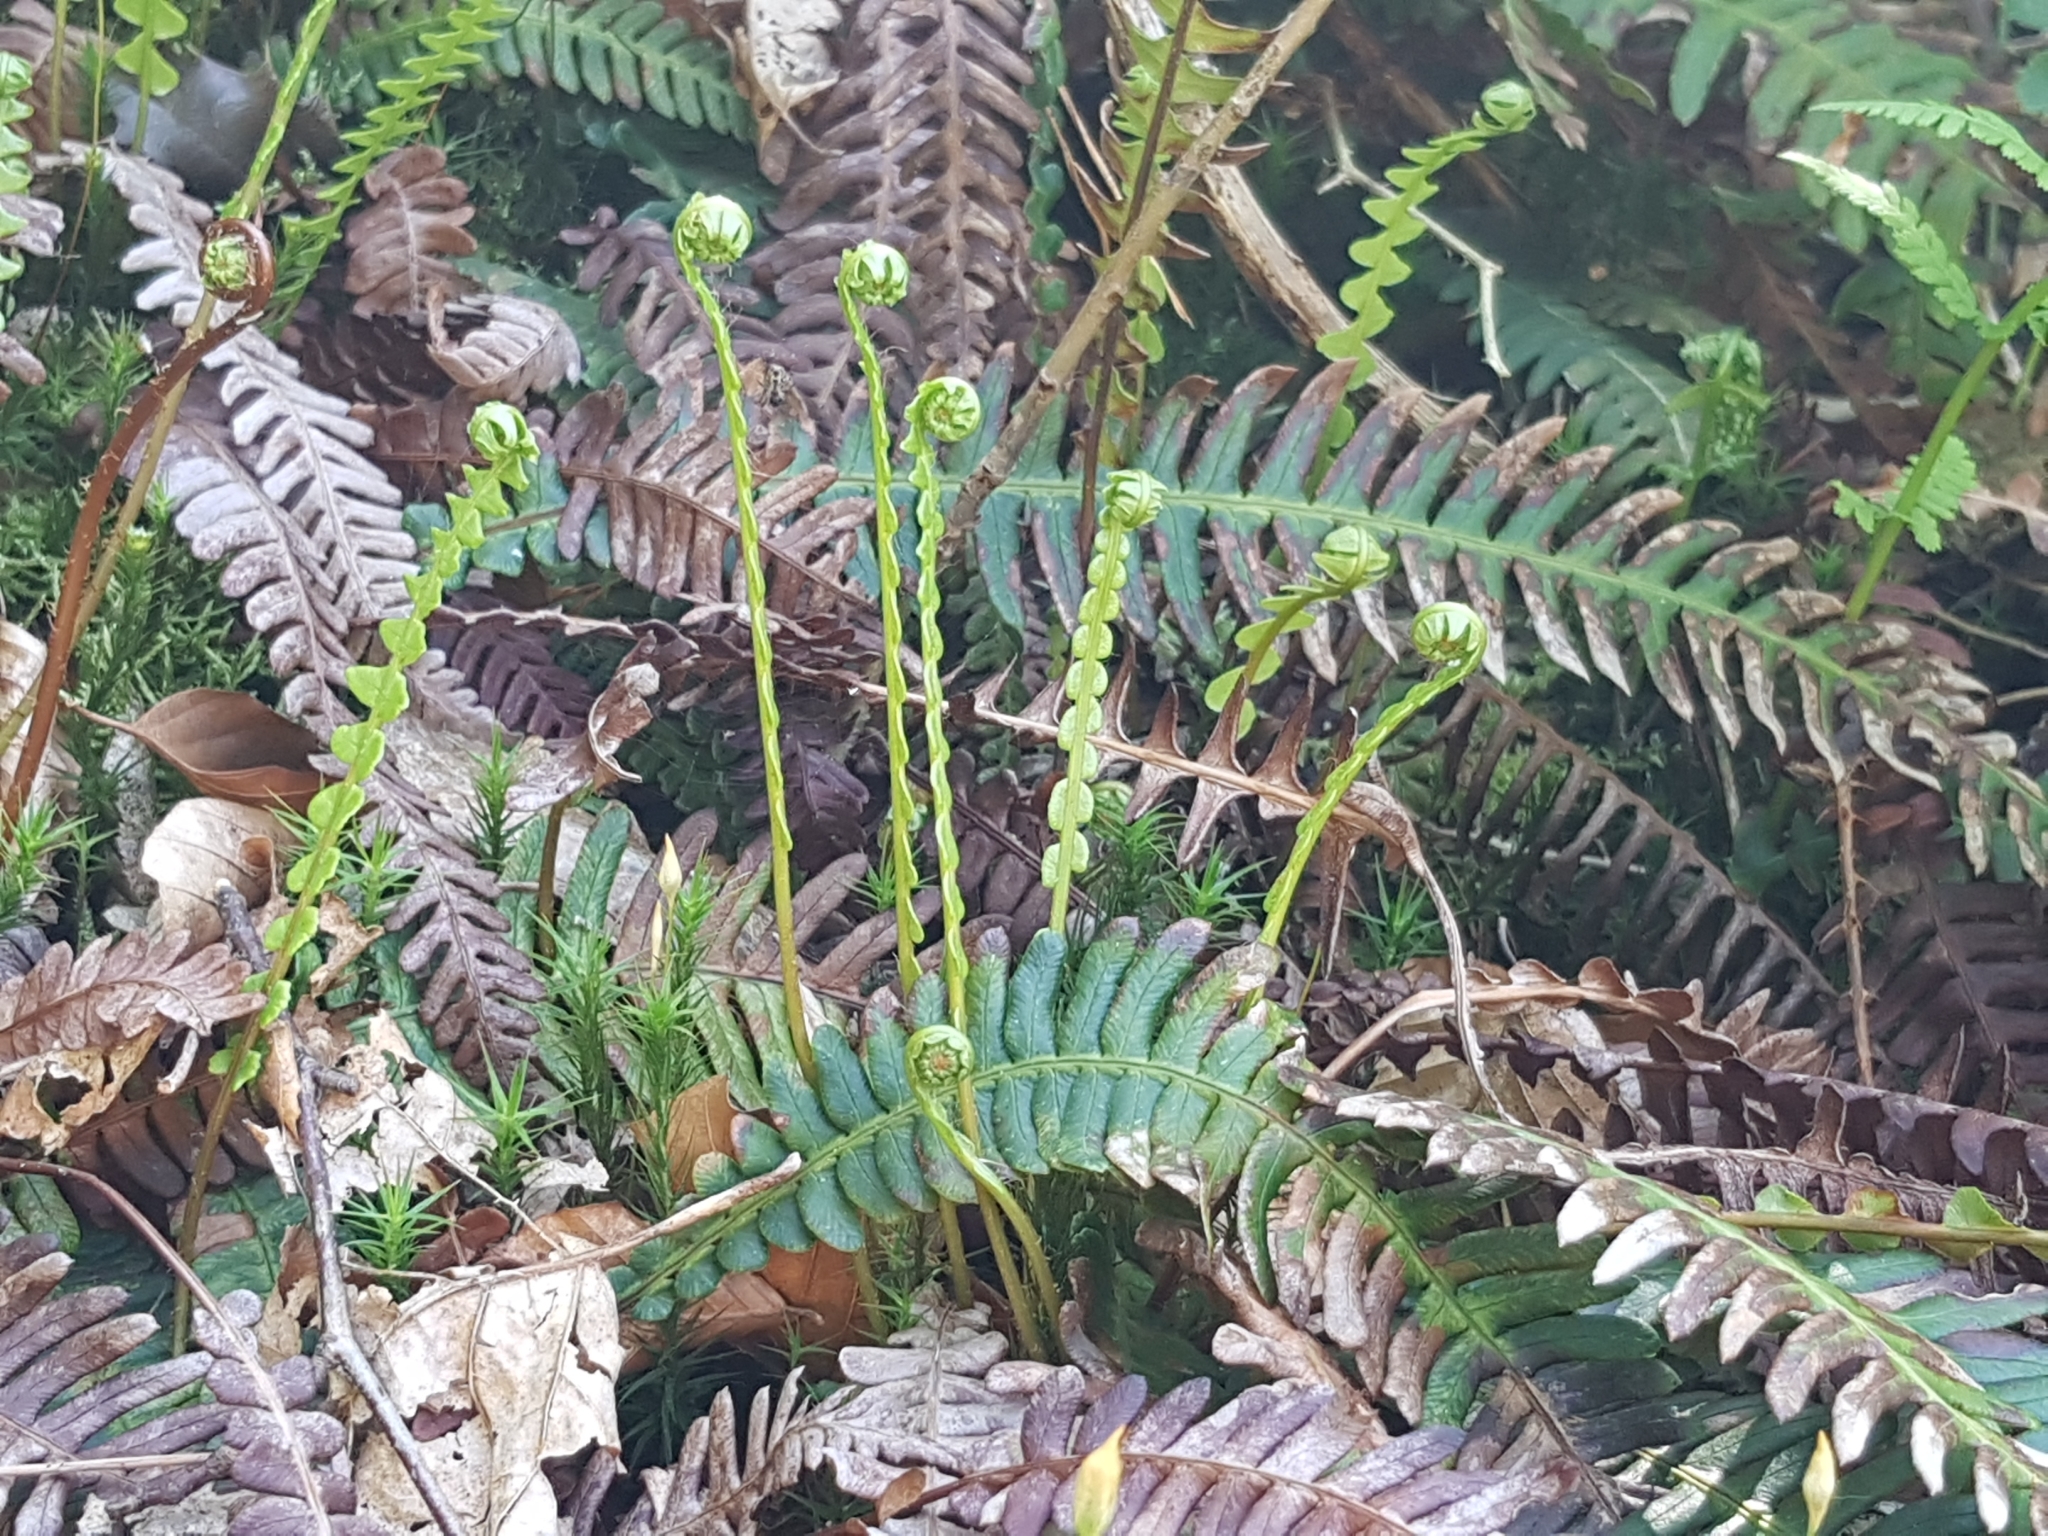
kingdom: Plantae
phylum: Tracheophyta
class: Polypodiopsida
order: Polypodiales
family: Blechnaceae
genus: Struthiopteris
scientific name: Struthiopteris spicant
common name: Deer fern
